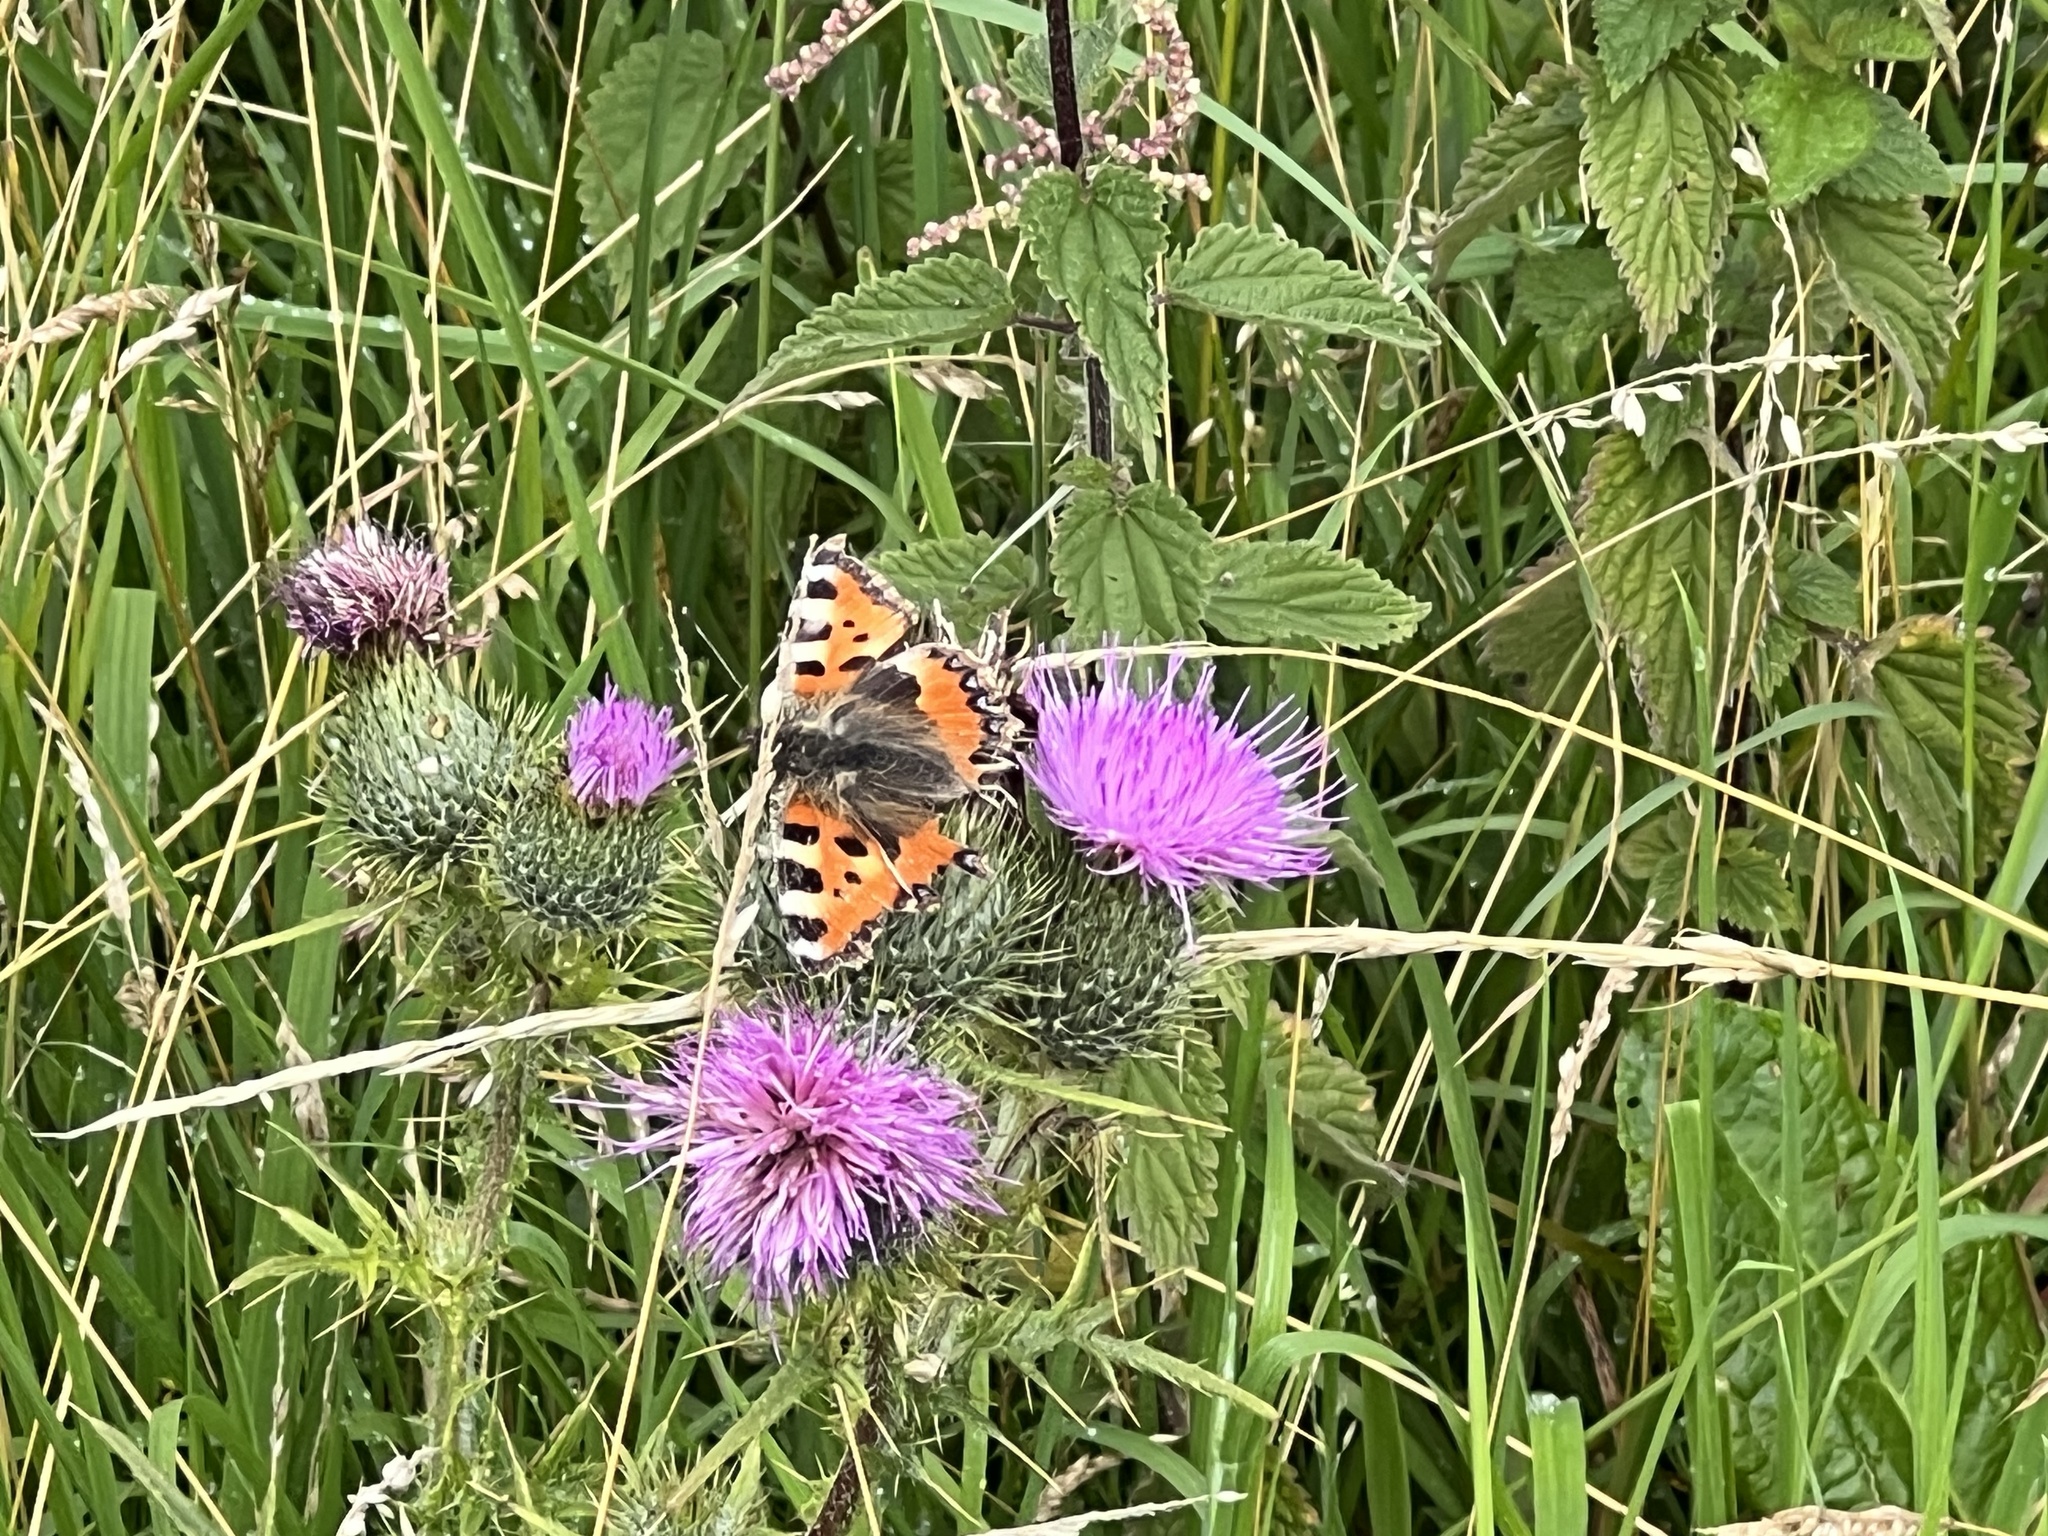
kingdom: Animalia
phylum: Arthropoda
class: Insecta
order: Lepidoptera
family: Nymphalidae
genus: Aglais
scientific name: Aglais urticae
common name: Small tortoiseshell
